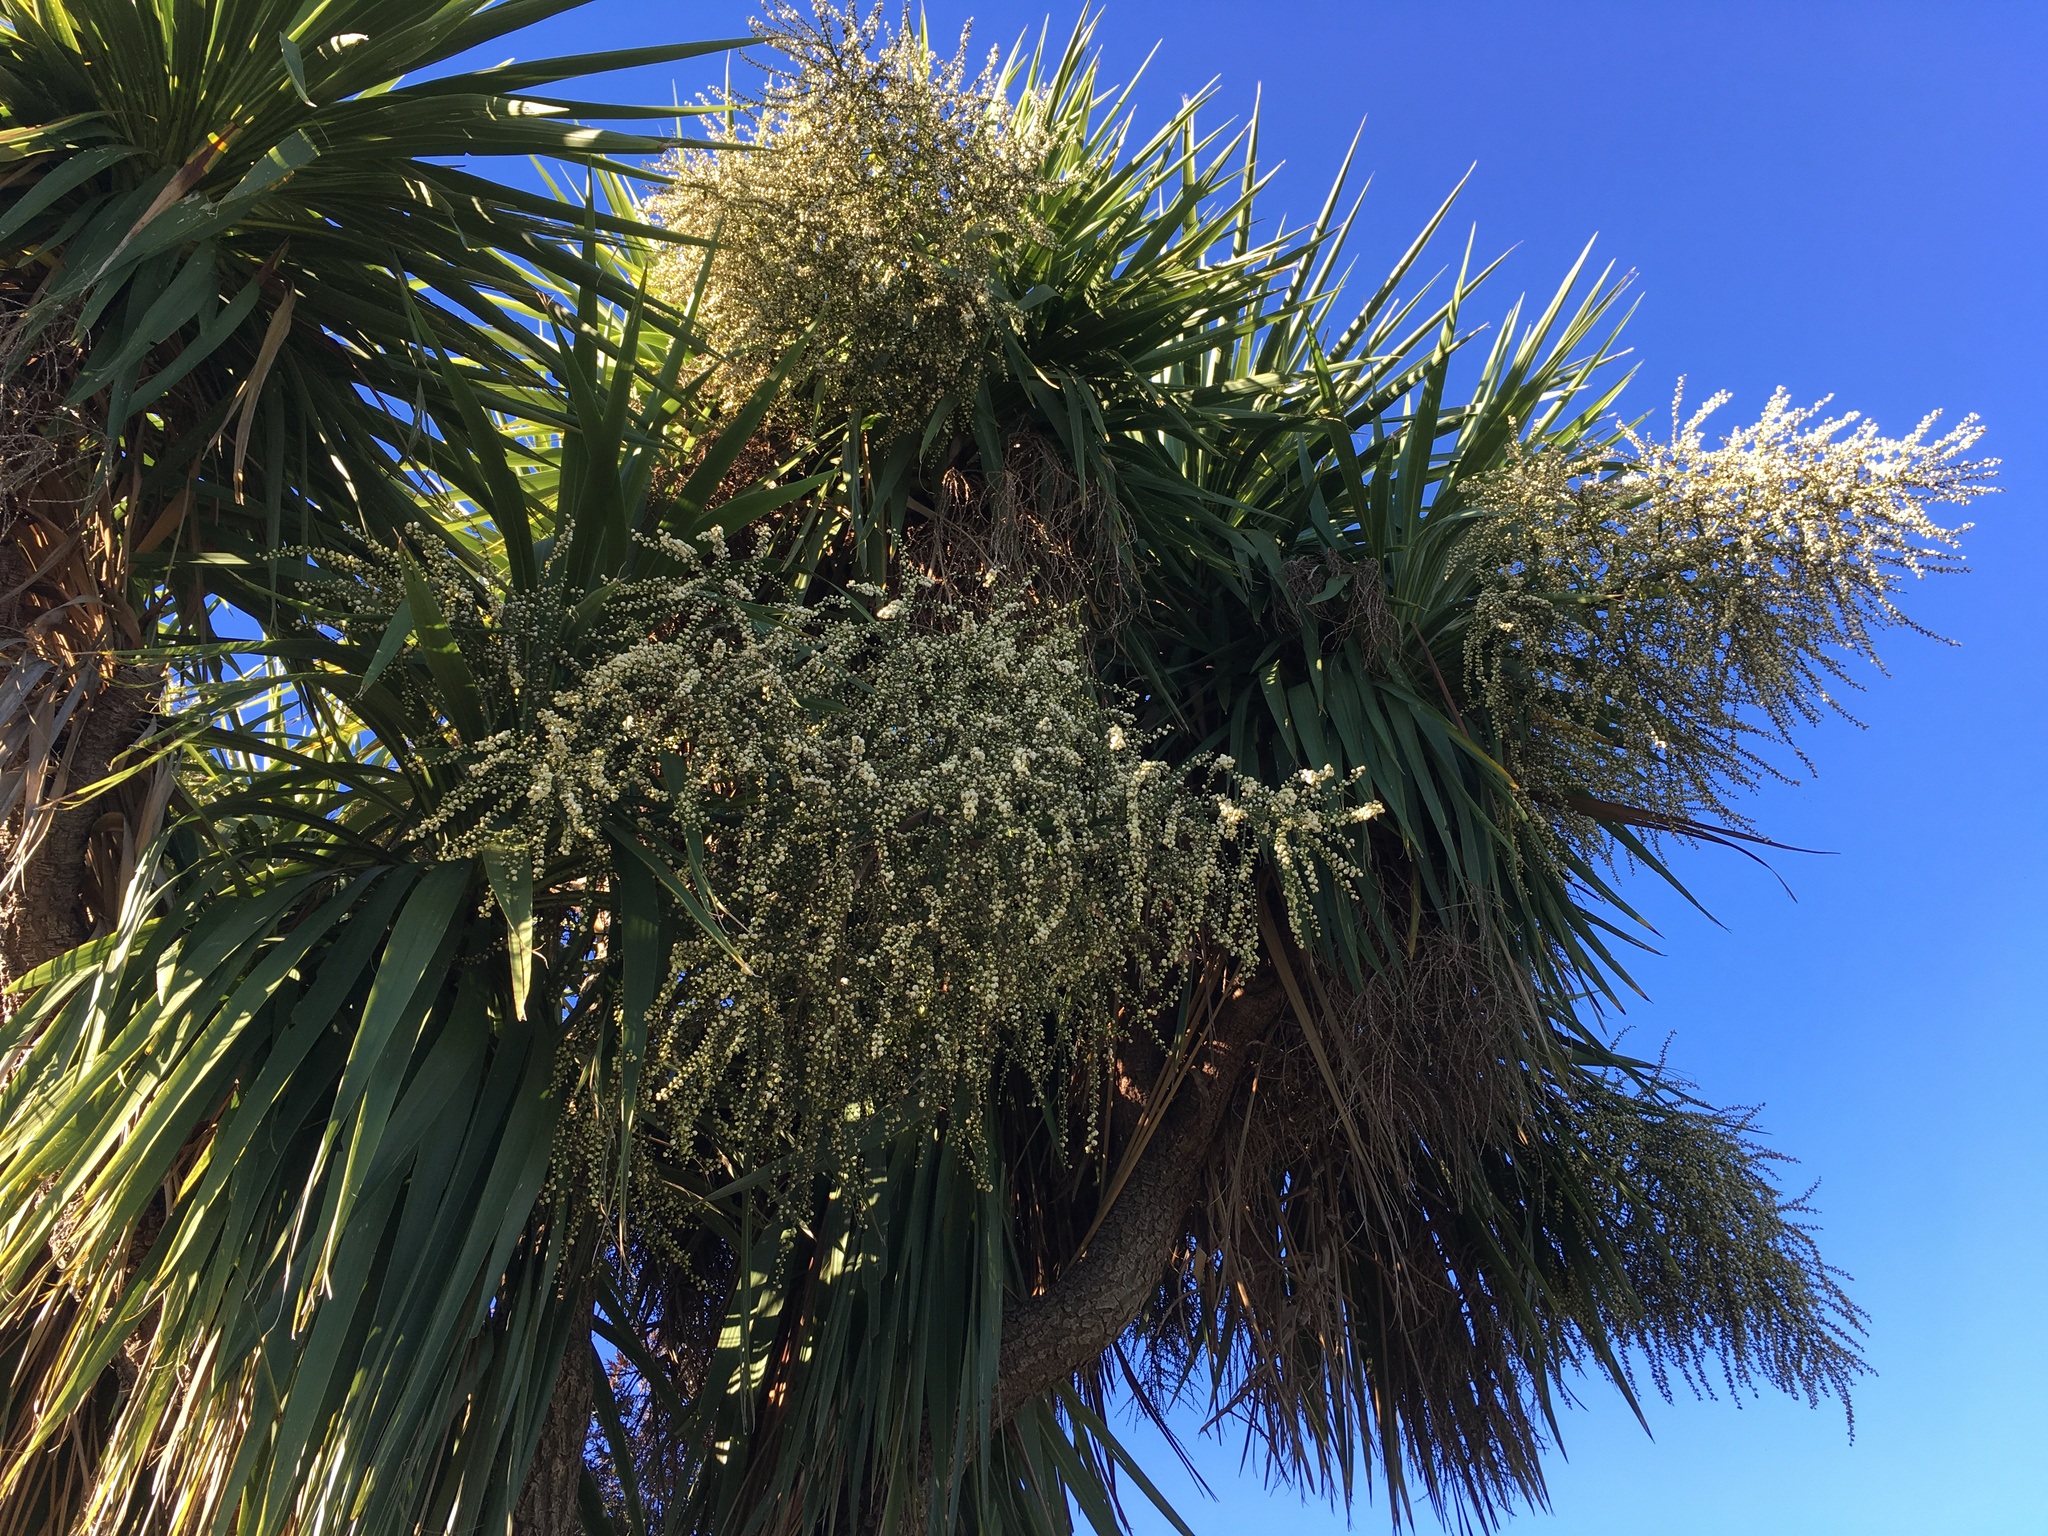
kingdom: Plantae
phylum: Tracheophyta
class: Liliopsida
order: Asparagales
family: Asparagaceae
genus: Cordyline
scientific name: Cordyline australis
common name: Cabbage-palm
